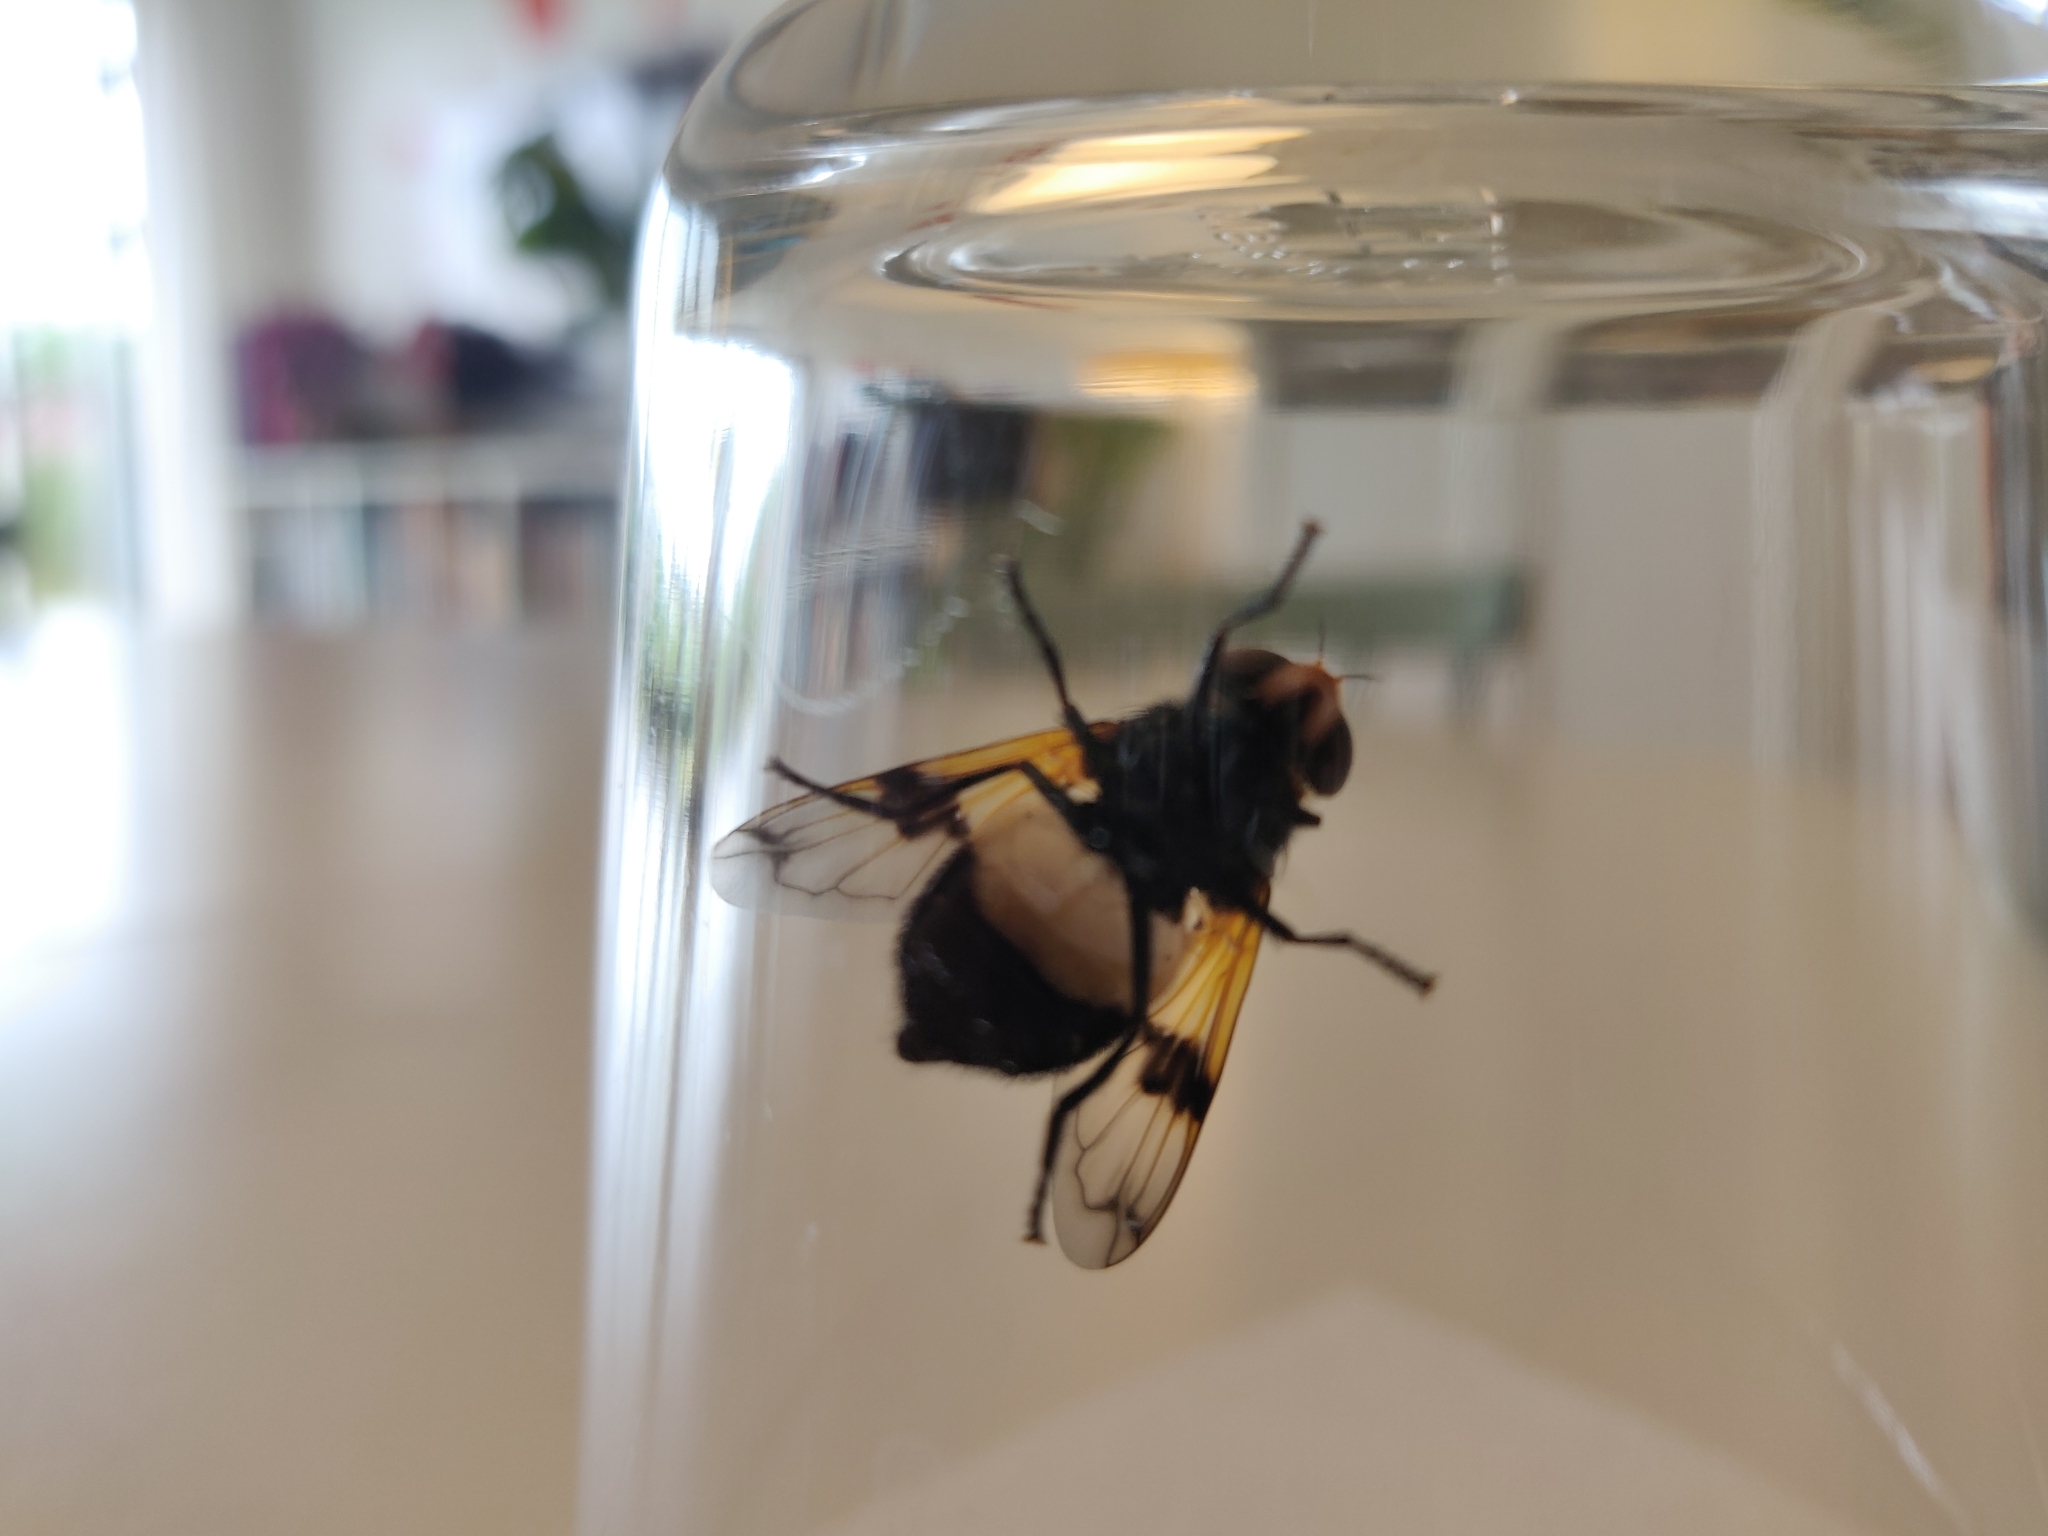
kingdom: Animalia
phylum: Arthropoda
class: Insecta
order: Diptera
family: Syrphidae
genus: Volucella
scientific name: Volucella pellucens
